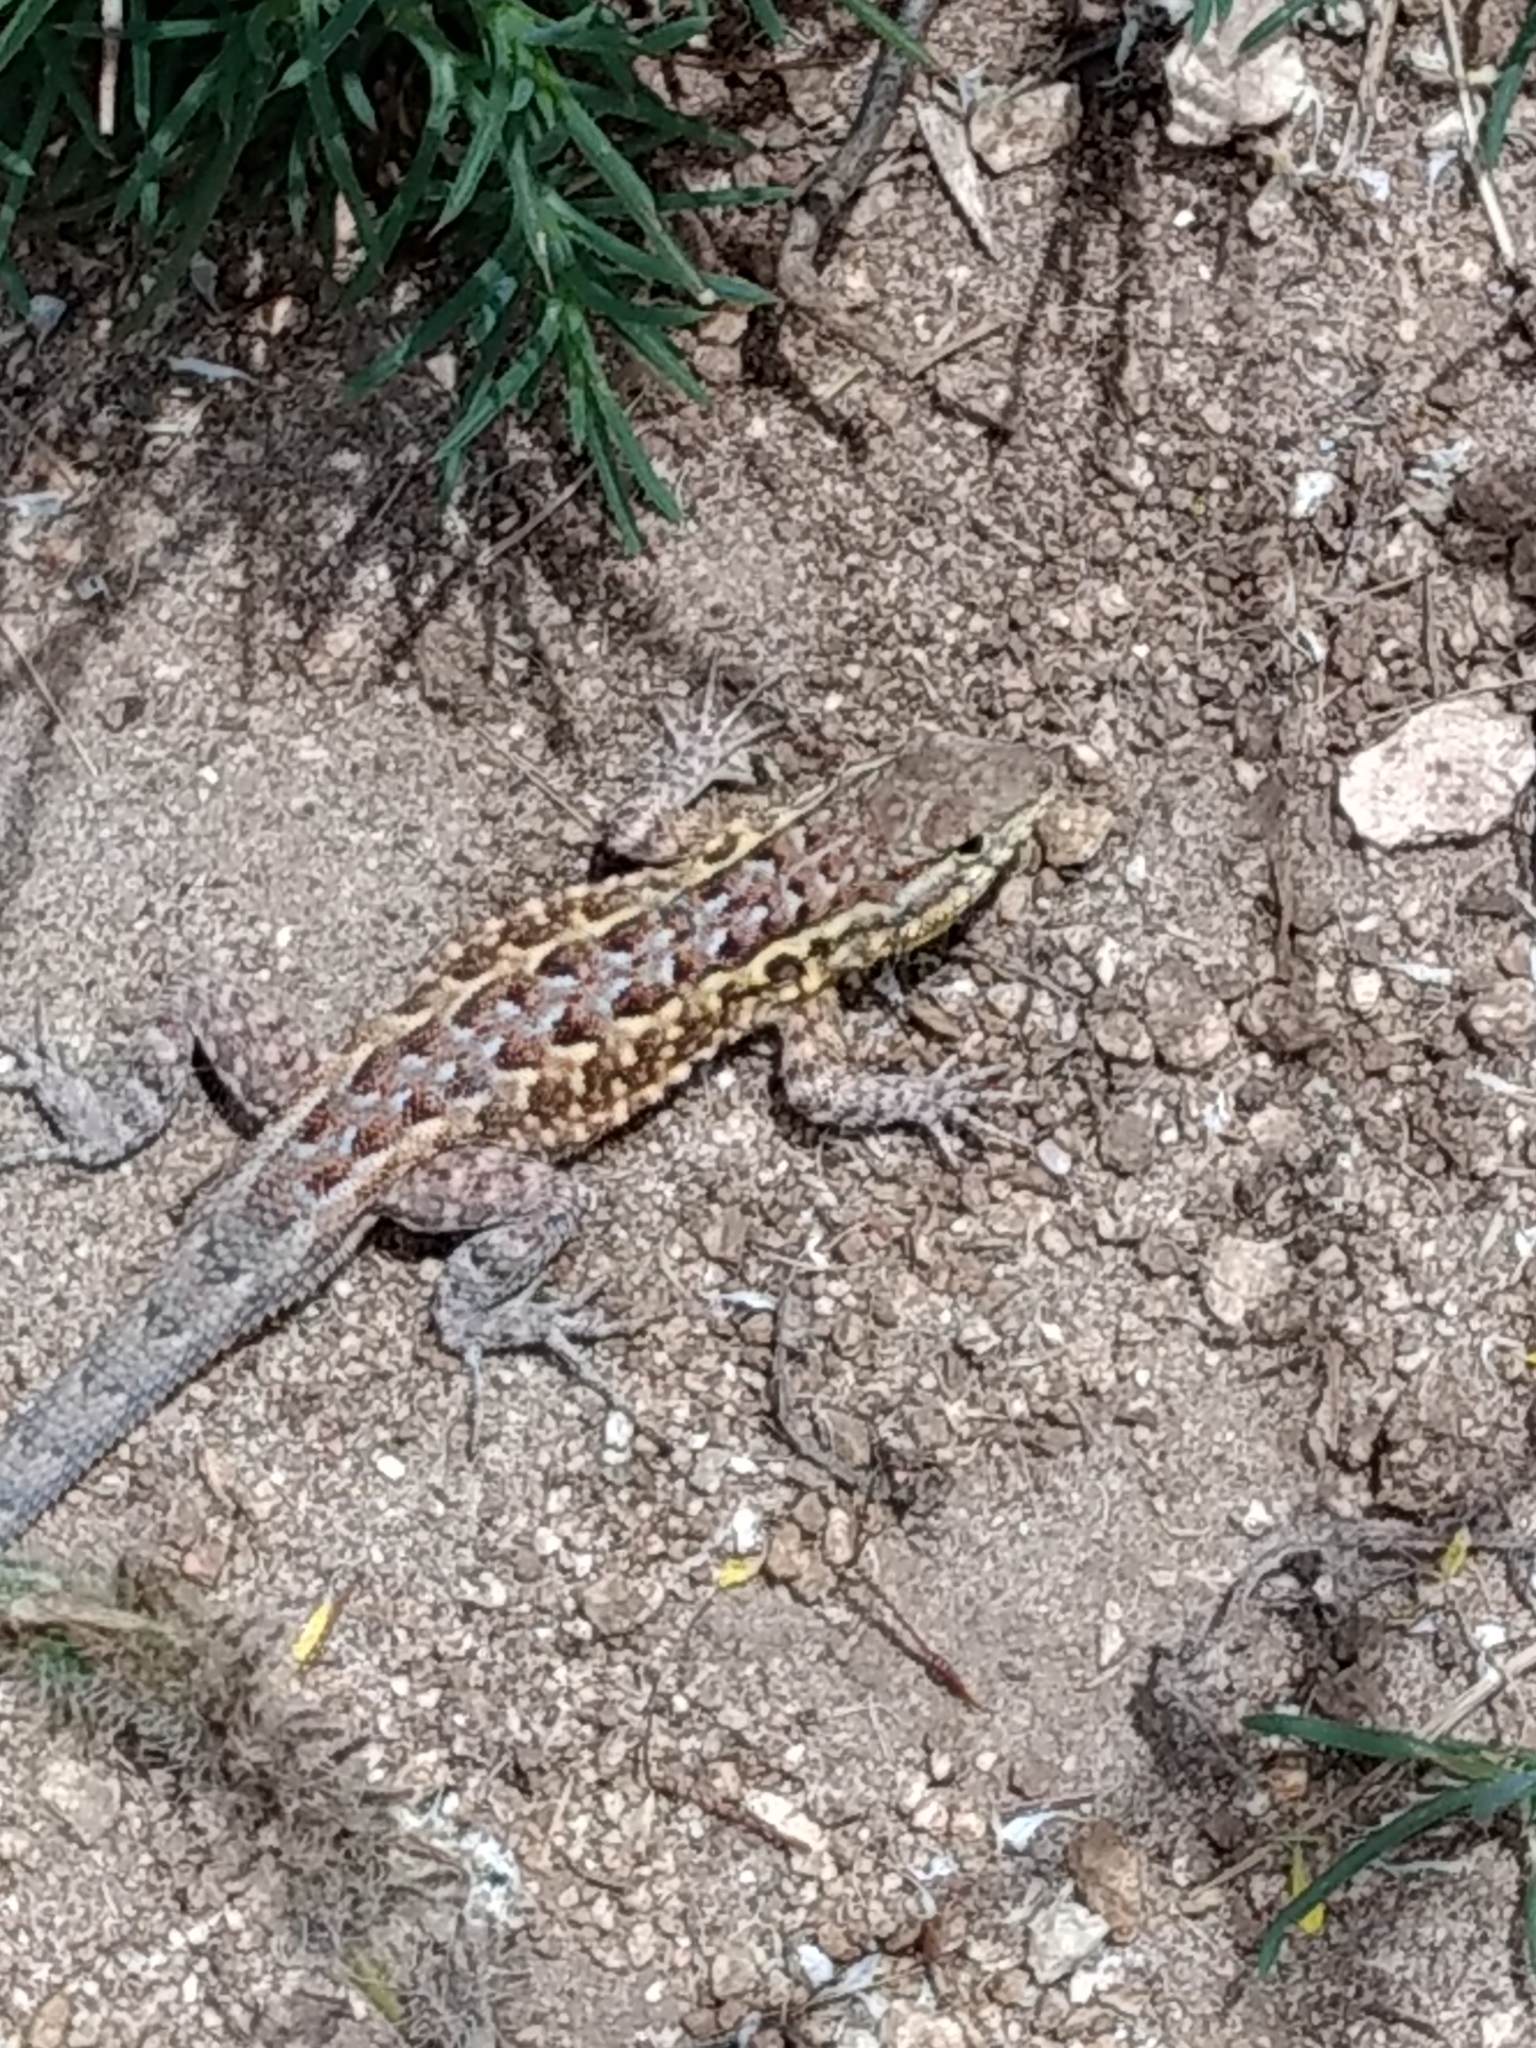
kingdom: Animalia
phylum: Chordata
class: Squamata
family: Phrynosomatidae
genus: Uta
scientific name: Uta stansburiana
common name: Side-blotched lizard
